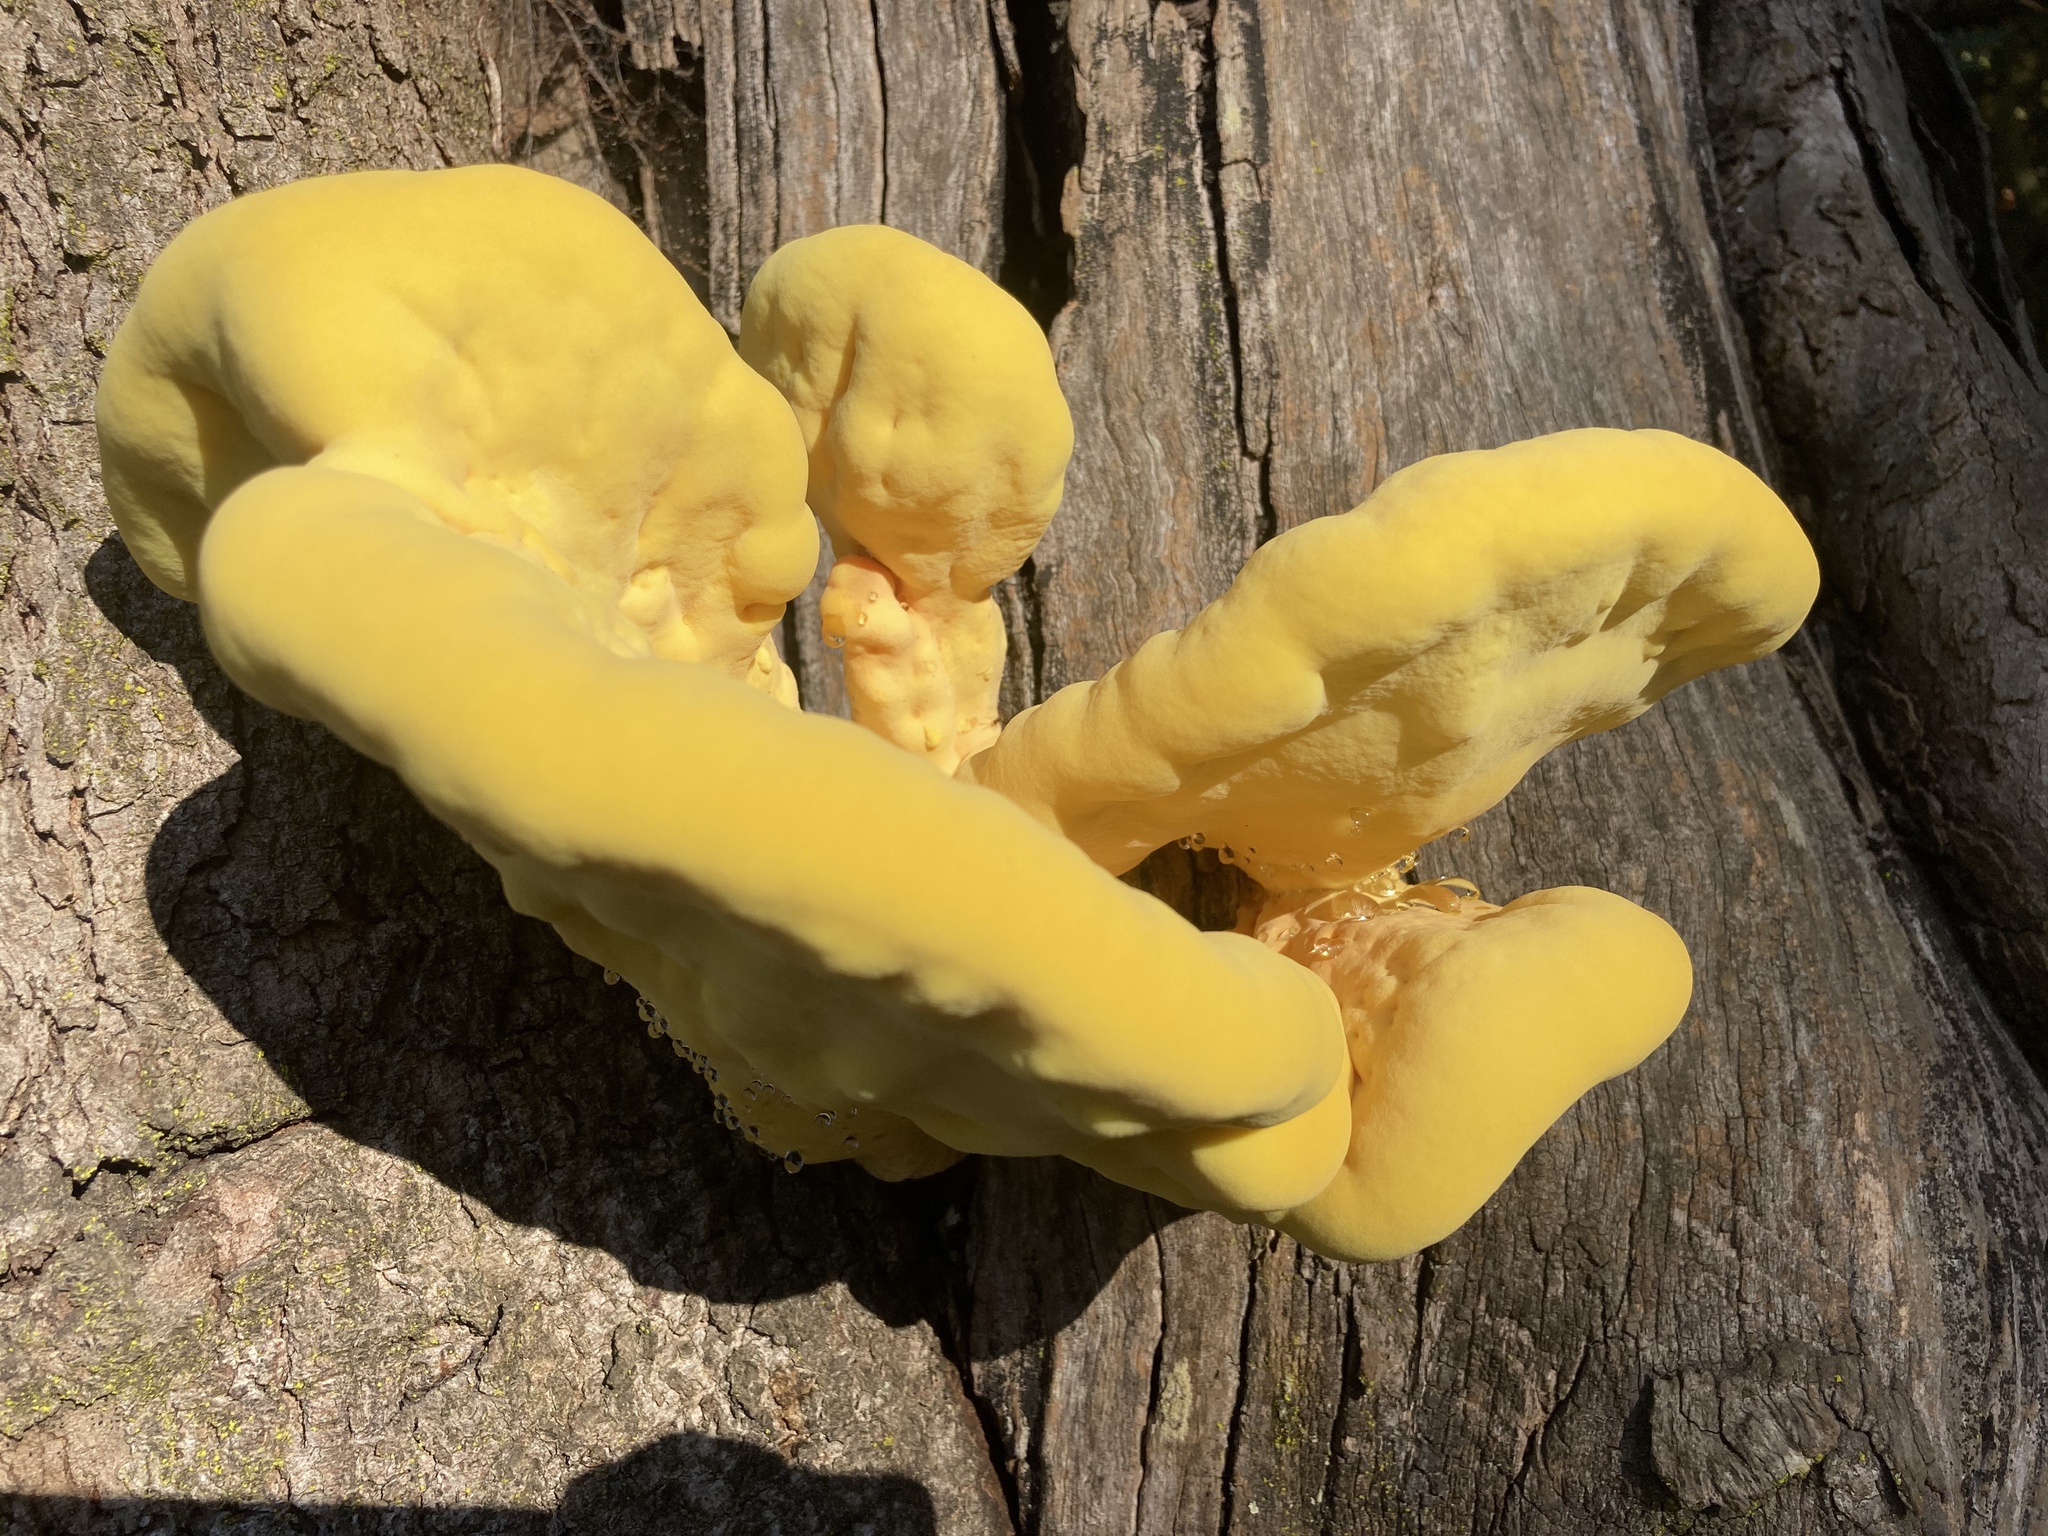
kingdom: Fungi
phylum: Basidiomycota
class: Agaricomycetes
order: Polyporales
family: Laetiporaceae
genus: Laetiporus
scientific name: Laetiporus gilbertsonii
